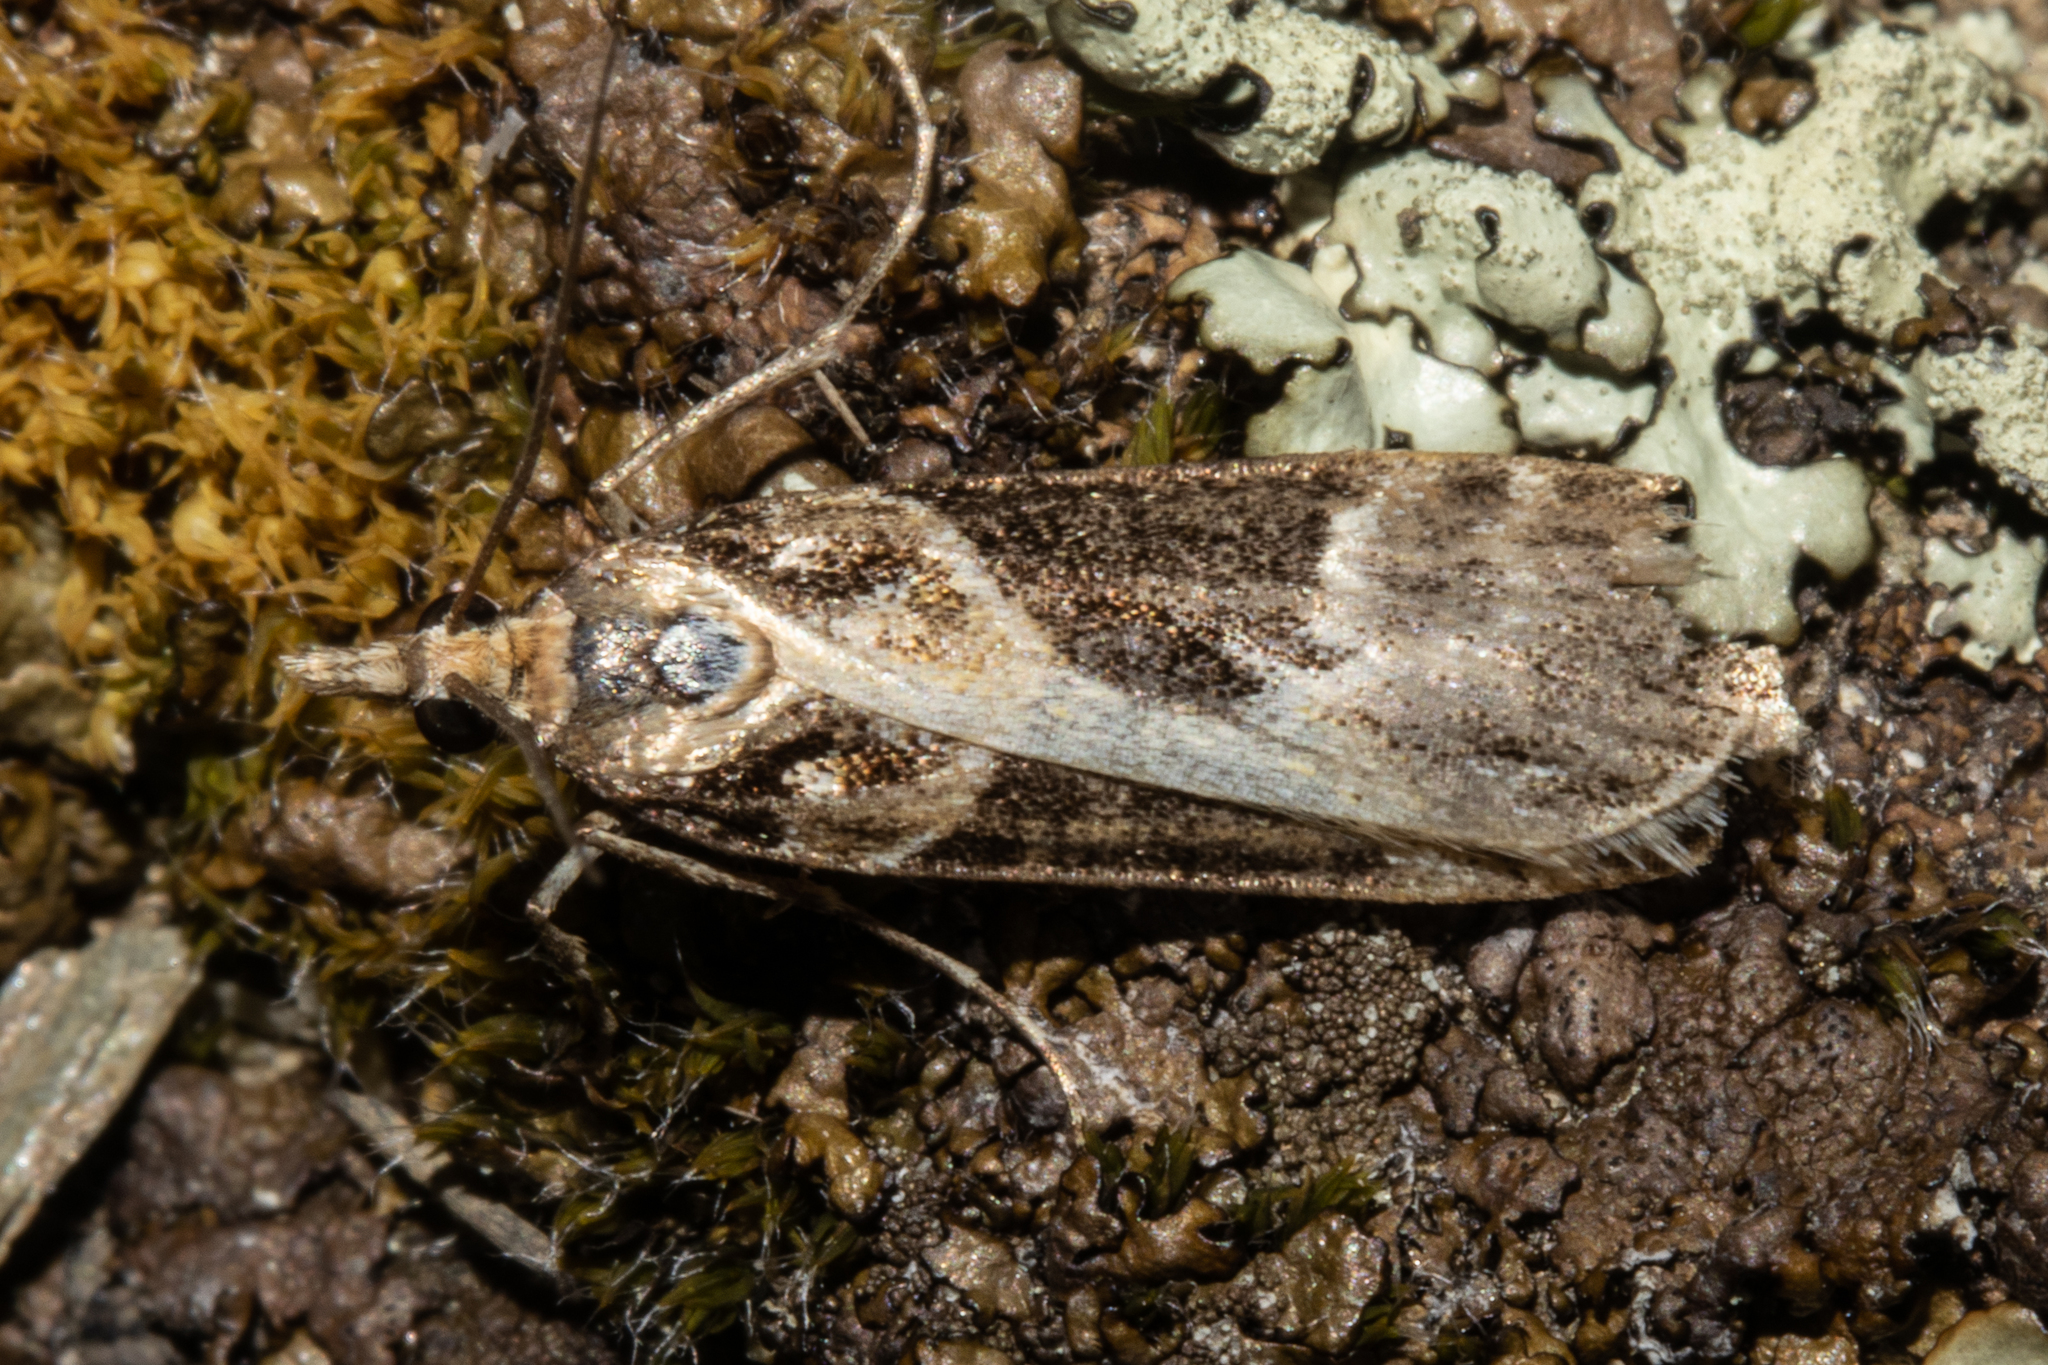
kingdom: Animalia
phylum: Arthropoda
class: Insecta
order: Lepidoptera
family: Crambidae
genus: Eudonia
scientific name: Eudonia melanaegis
